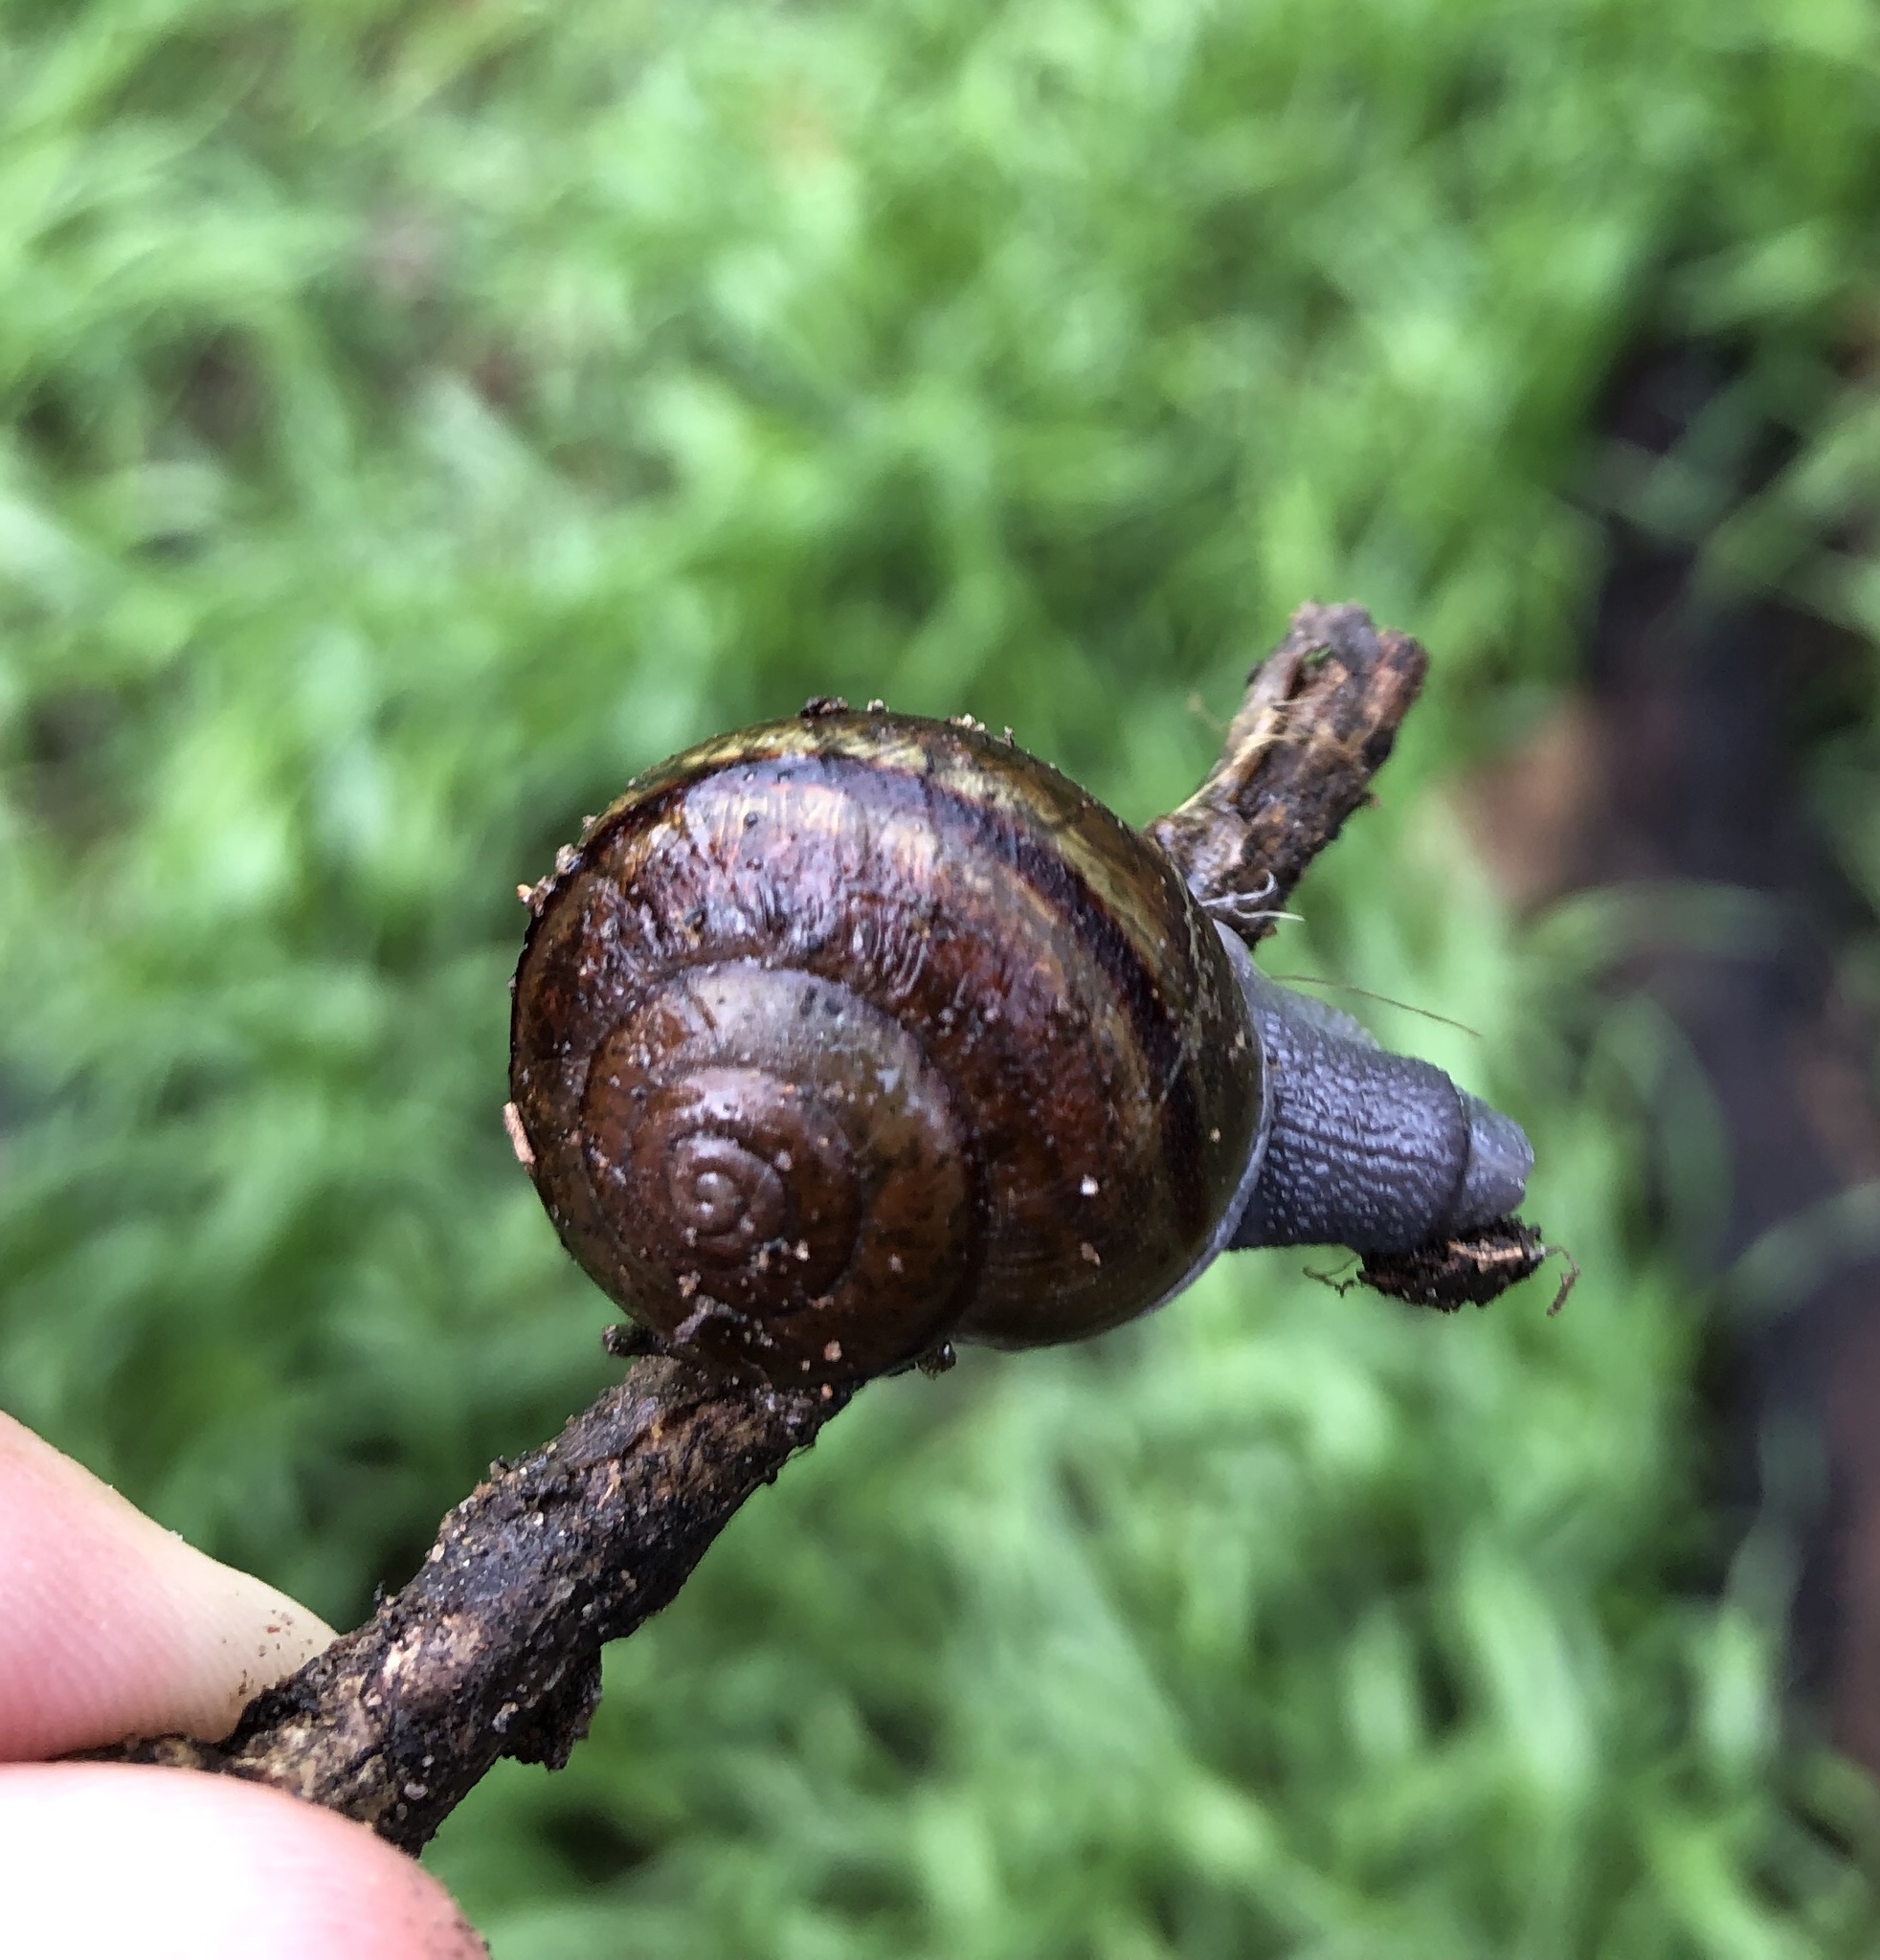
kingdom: Animalia
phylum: Mollusca
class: Gastropoda
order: Stylommatophora
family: Xanthonychidae
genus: Helminthoglypta
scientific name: Helminthoglypta tudiculata
